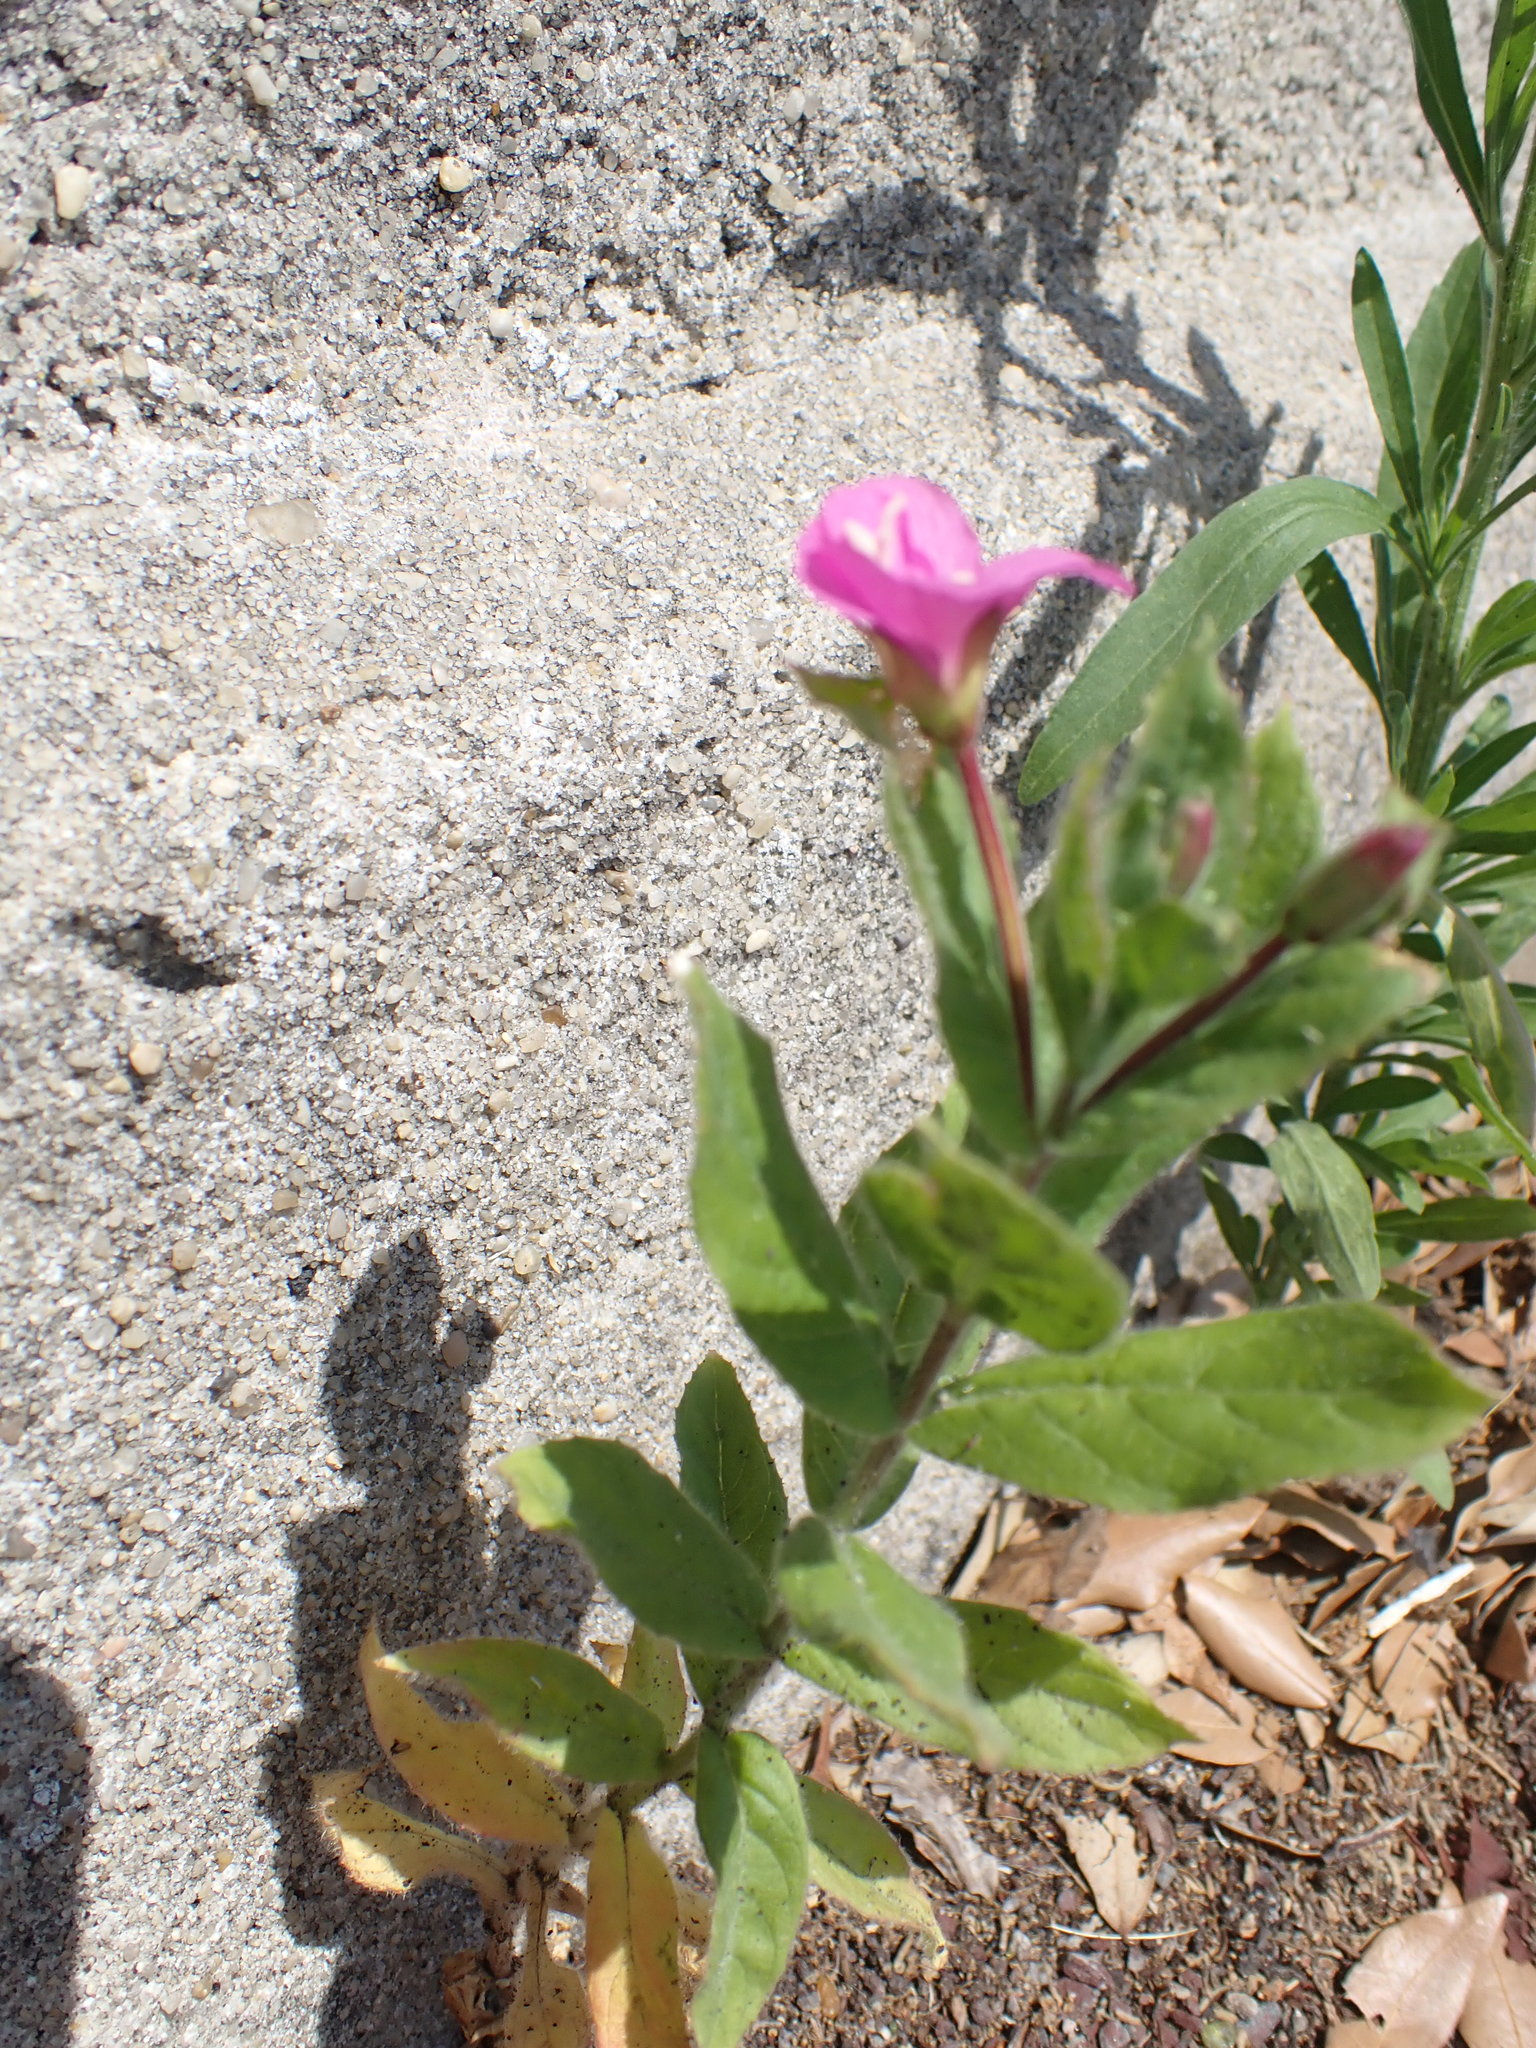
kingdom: Plantae
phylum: Tracheophyta
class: Magnoliopsida
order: Myrtales
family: Onagraceae
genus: Epilobium
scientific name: Epilobium hirsutum
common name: Great willowherb
